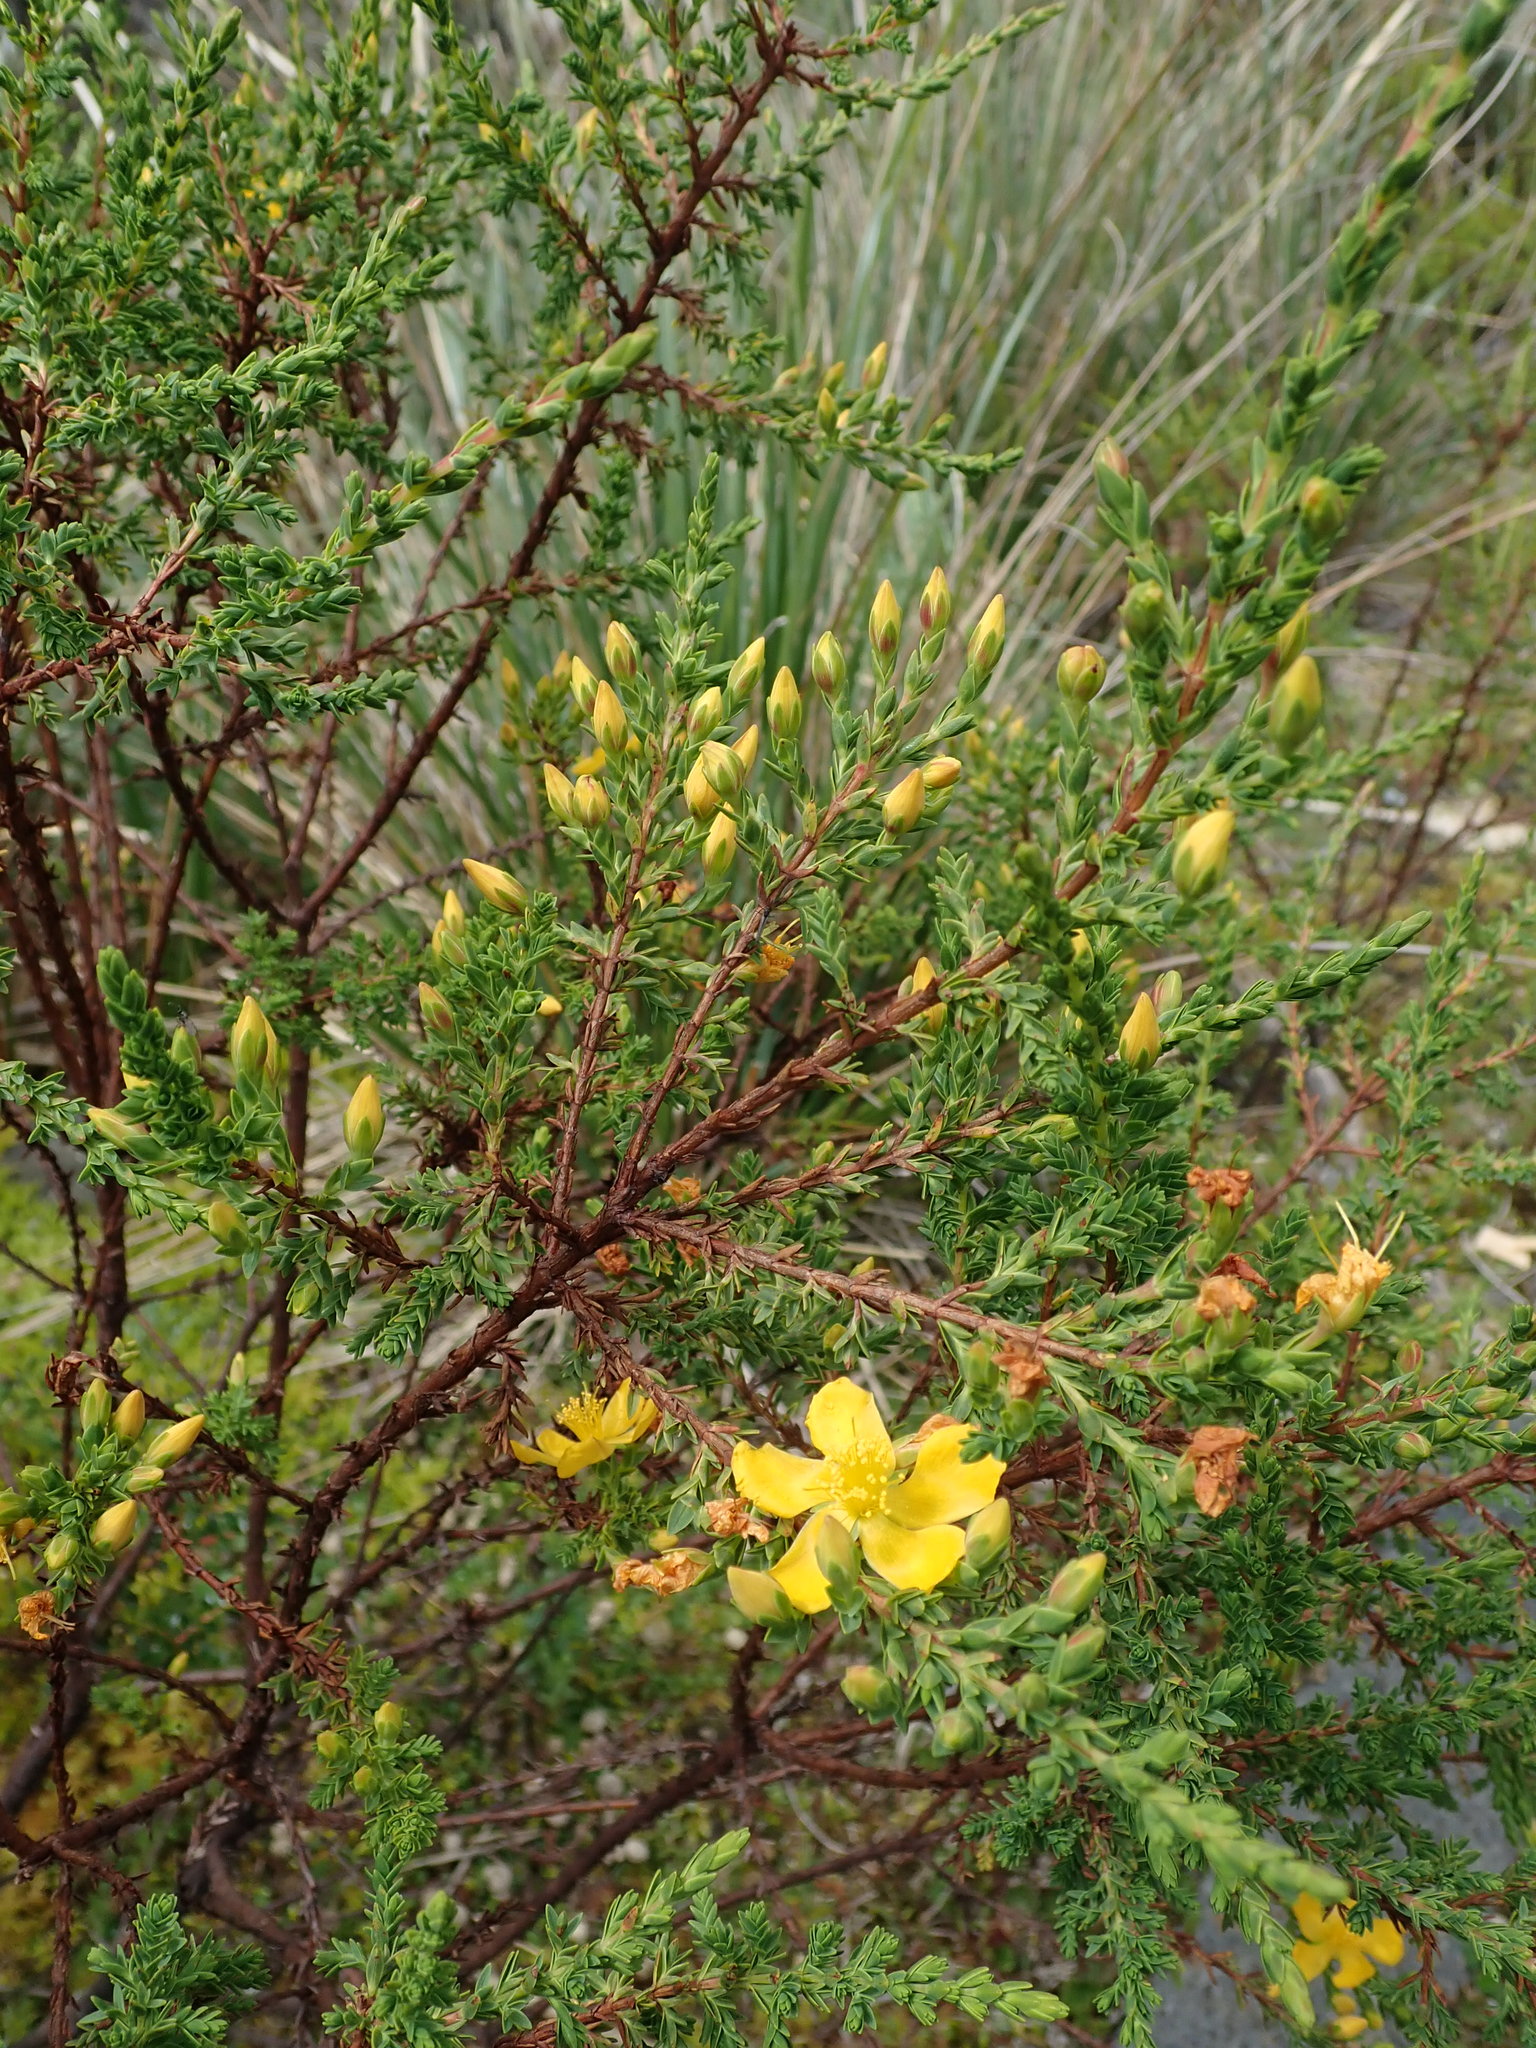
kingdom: Plantae
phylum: Tracheophyta
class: Magnoliopsida
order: Malpighiales
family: Hypericaceae
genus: Hypericum
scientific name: Hypericum laricifolium
